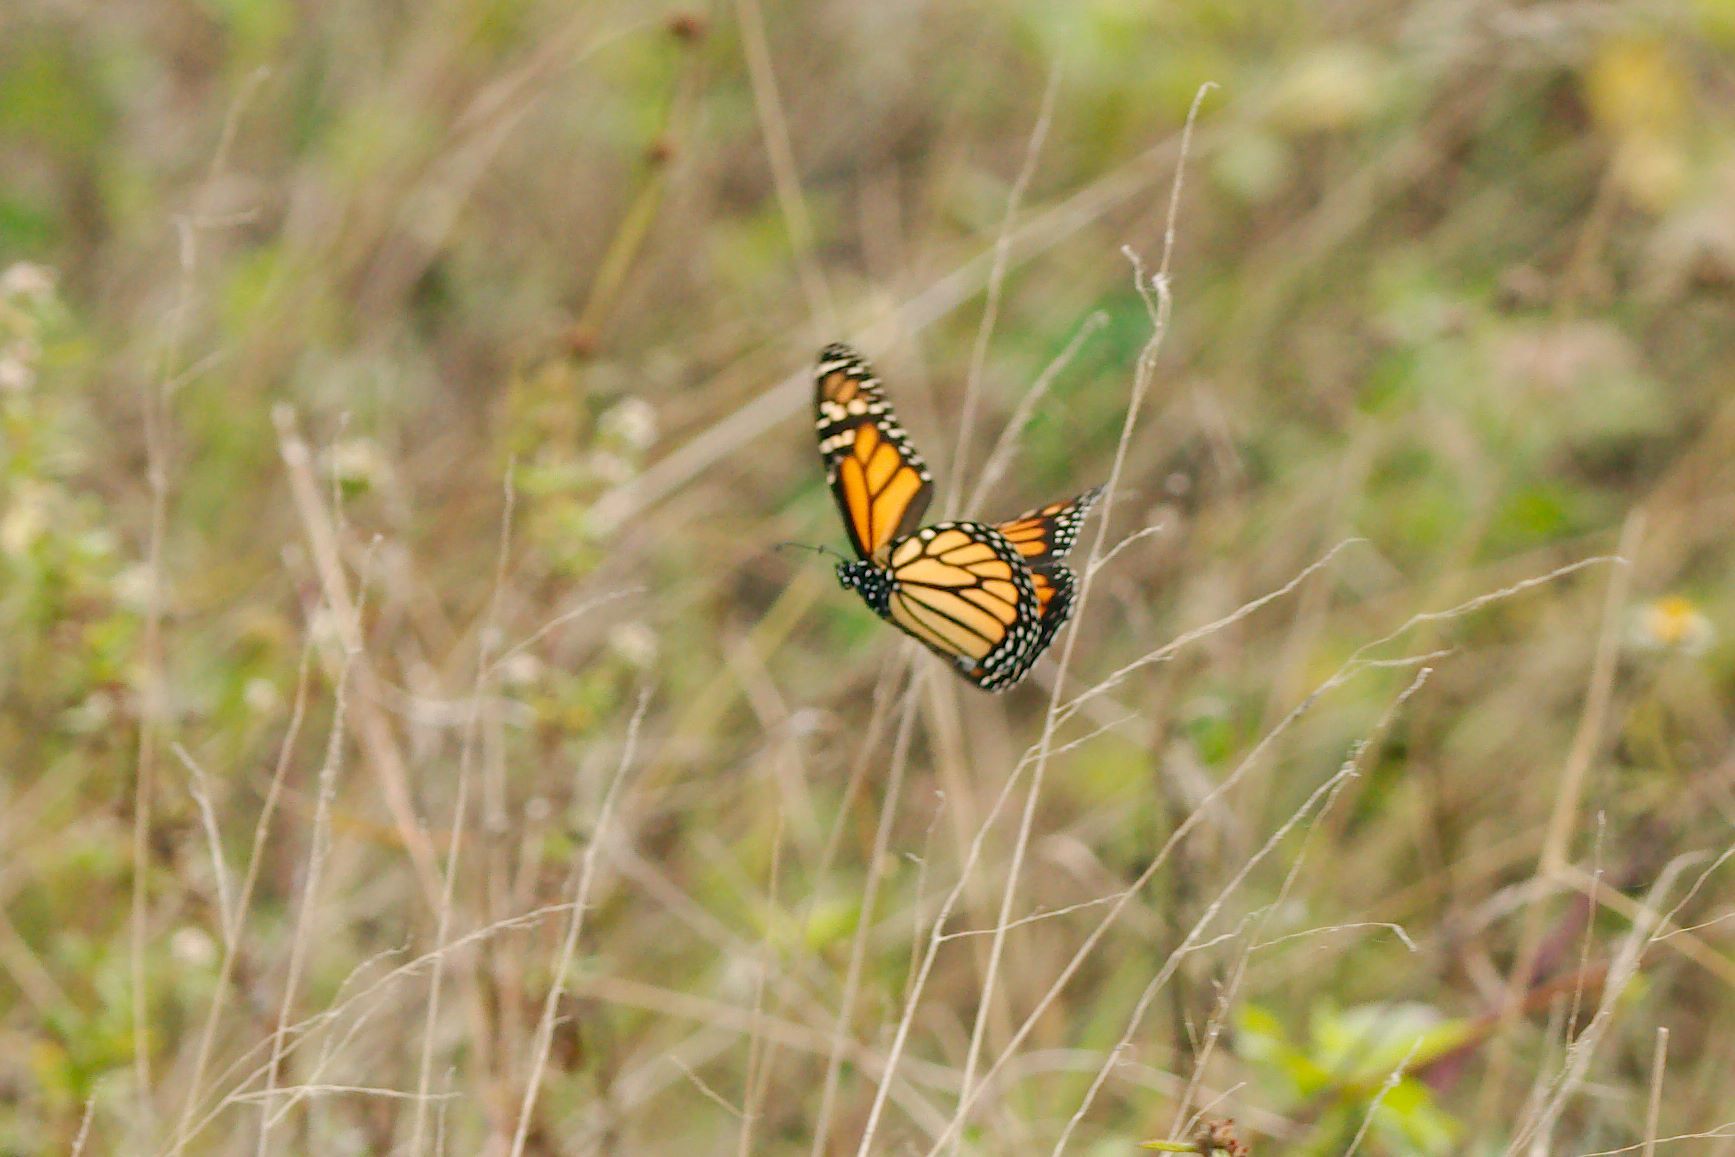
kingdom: Animalia
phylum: Arthropoda
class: Insecta
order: Lepidoptera
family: Nymphalidae
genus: Danaus
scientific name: Danaus plexippus
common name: Monarch
